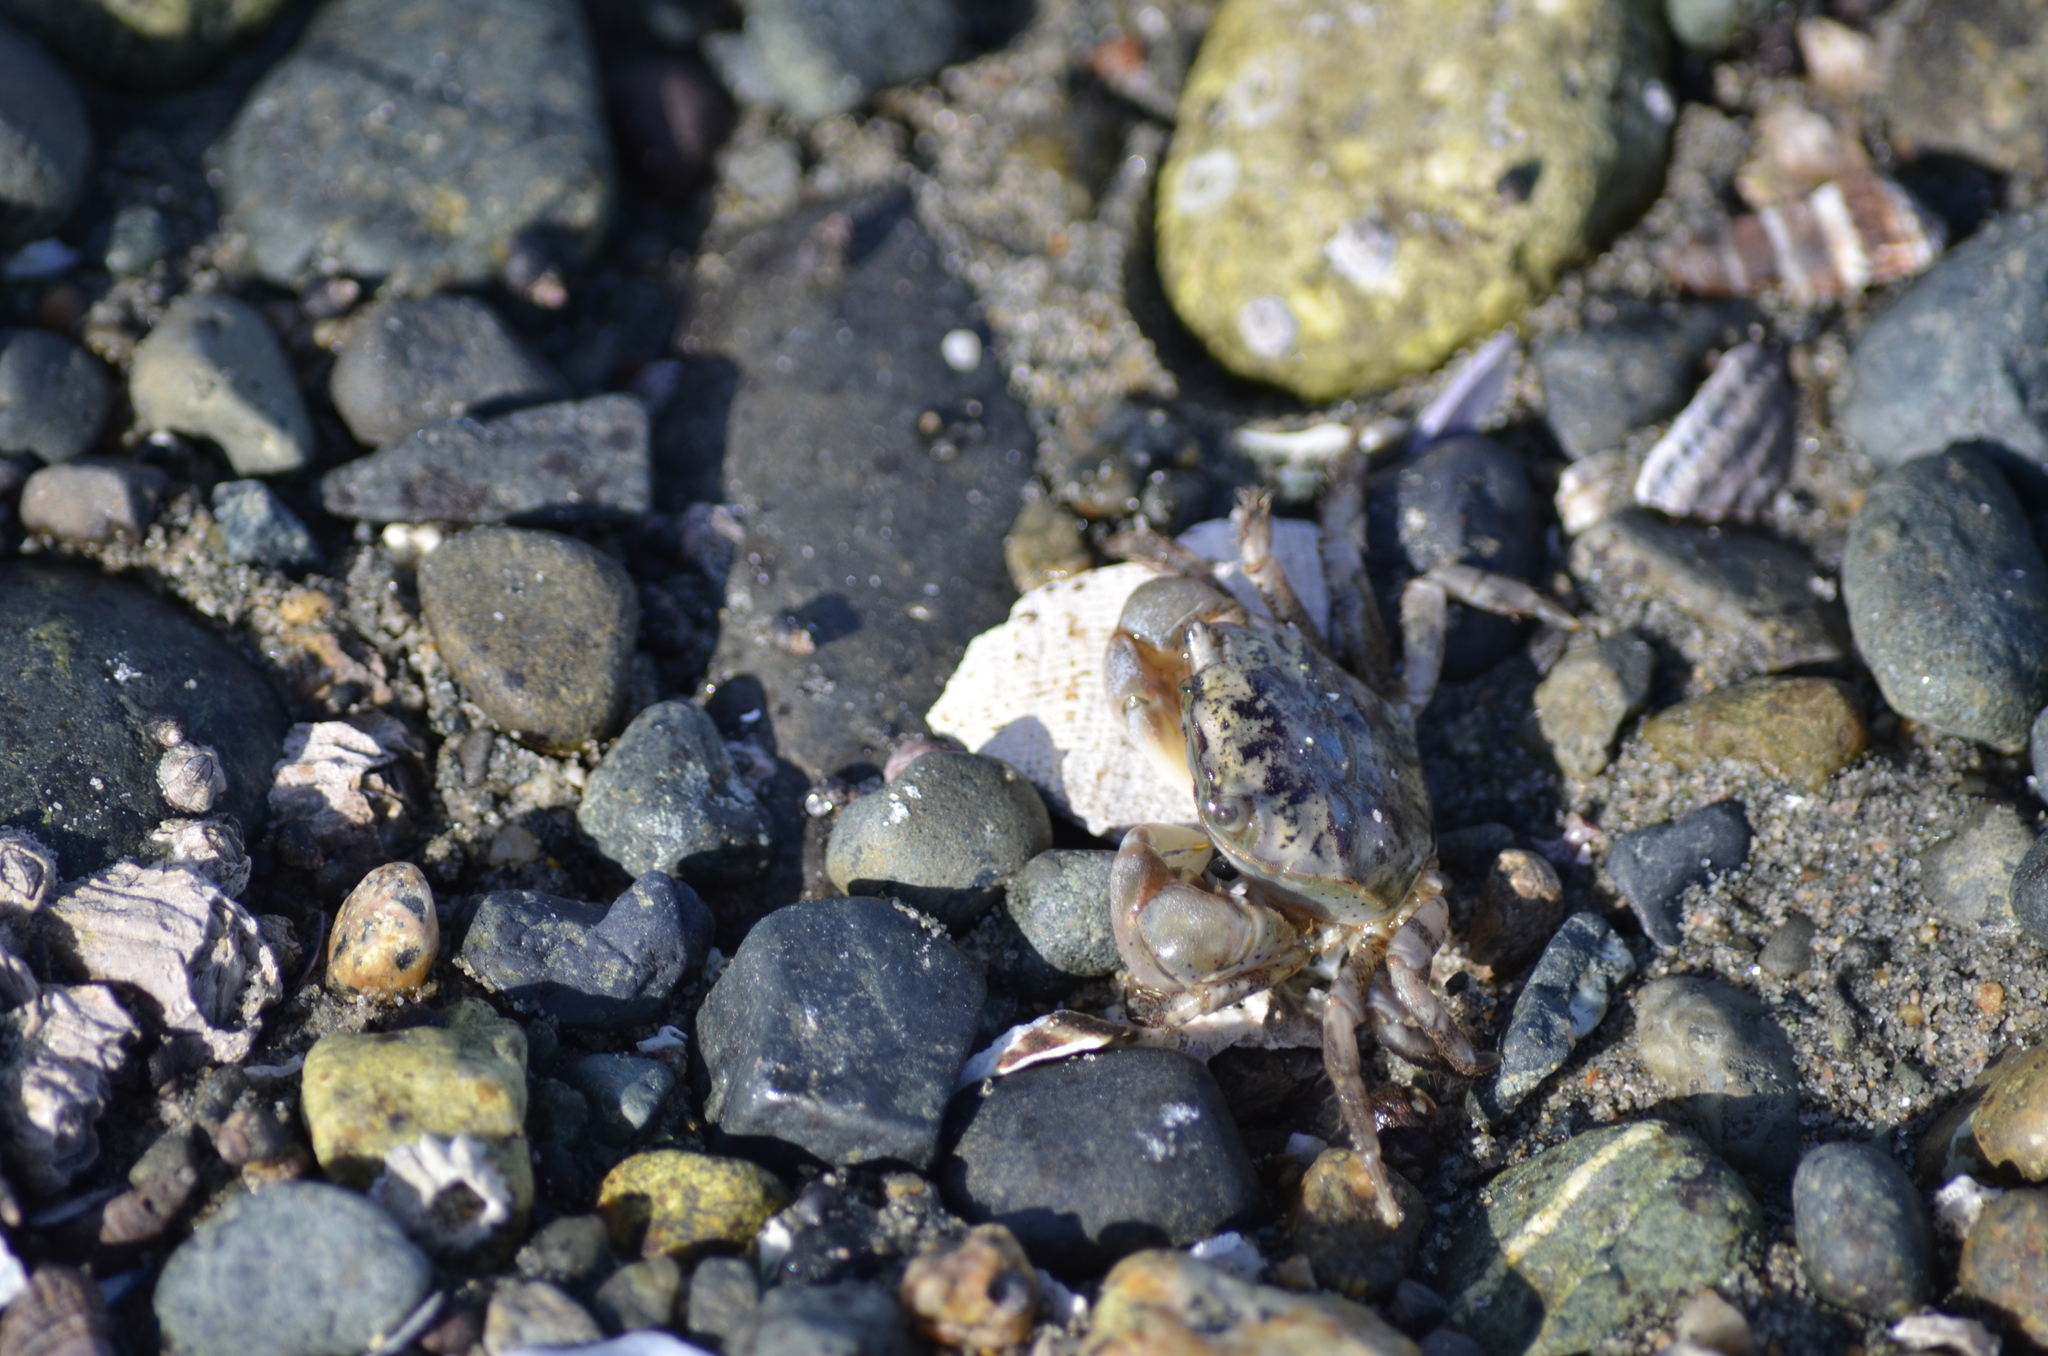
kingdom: Animalia
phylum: Arthropoda
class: Malacostraca
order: Decapoda
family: Varunidae
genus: Hemigrapsus
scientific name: Hemigrapsus oregonensis
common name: Yellow shore crab
